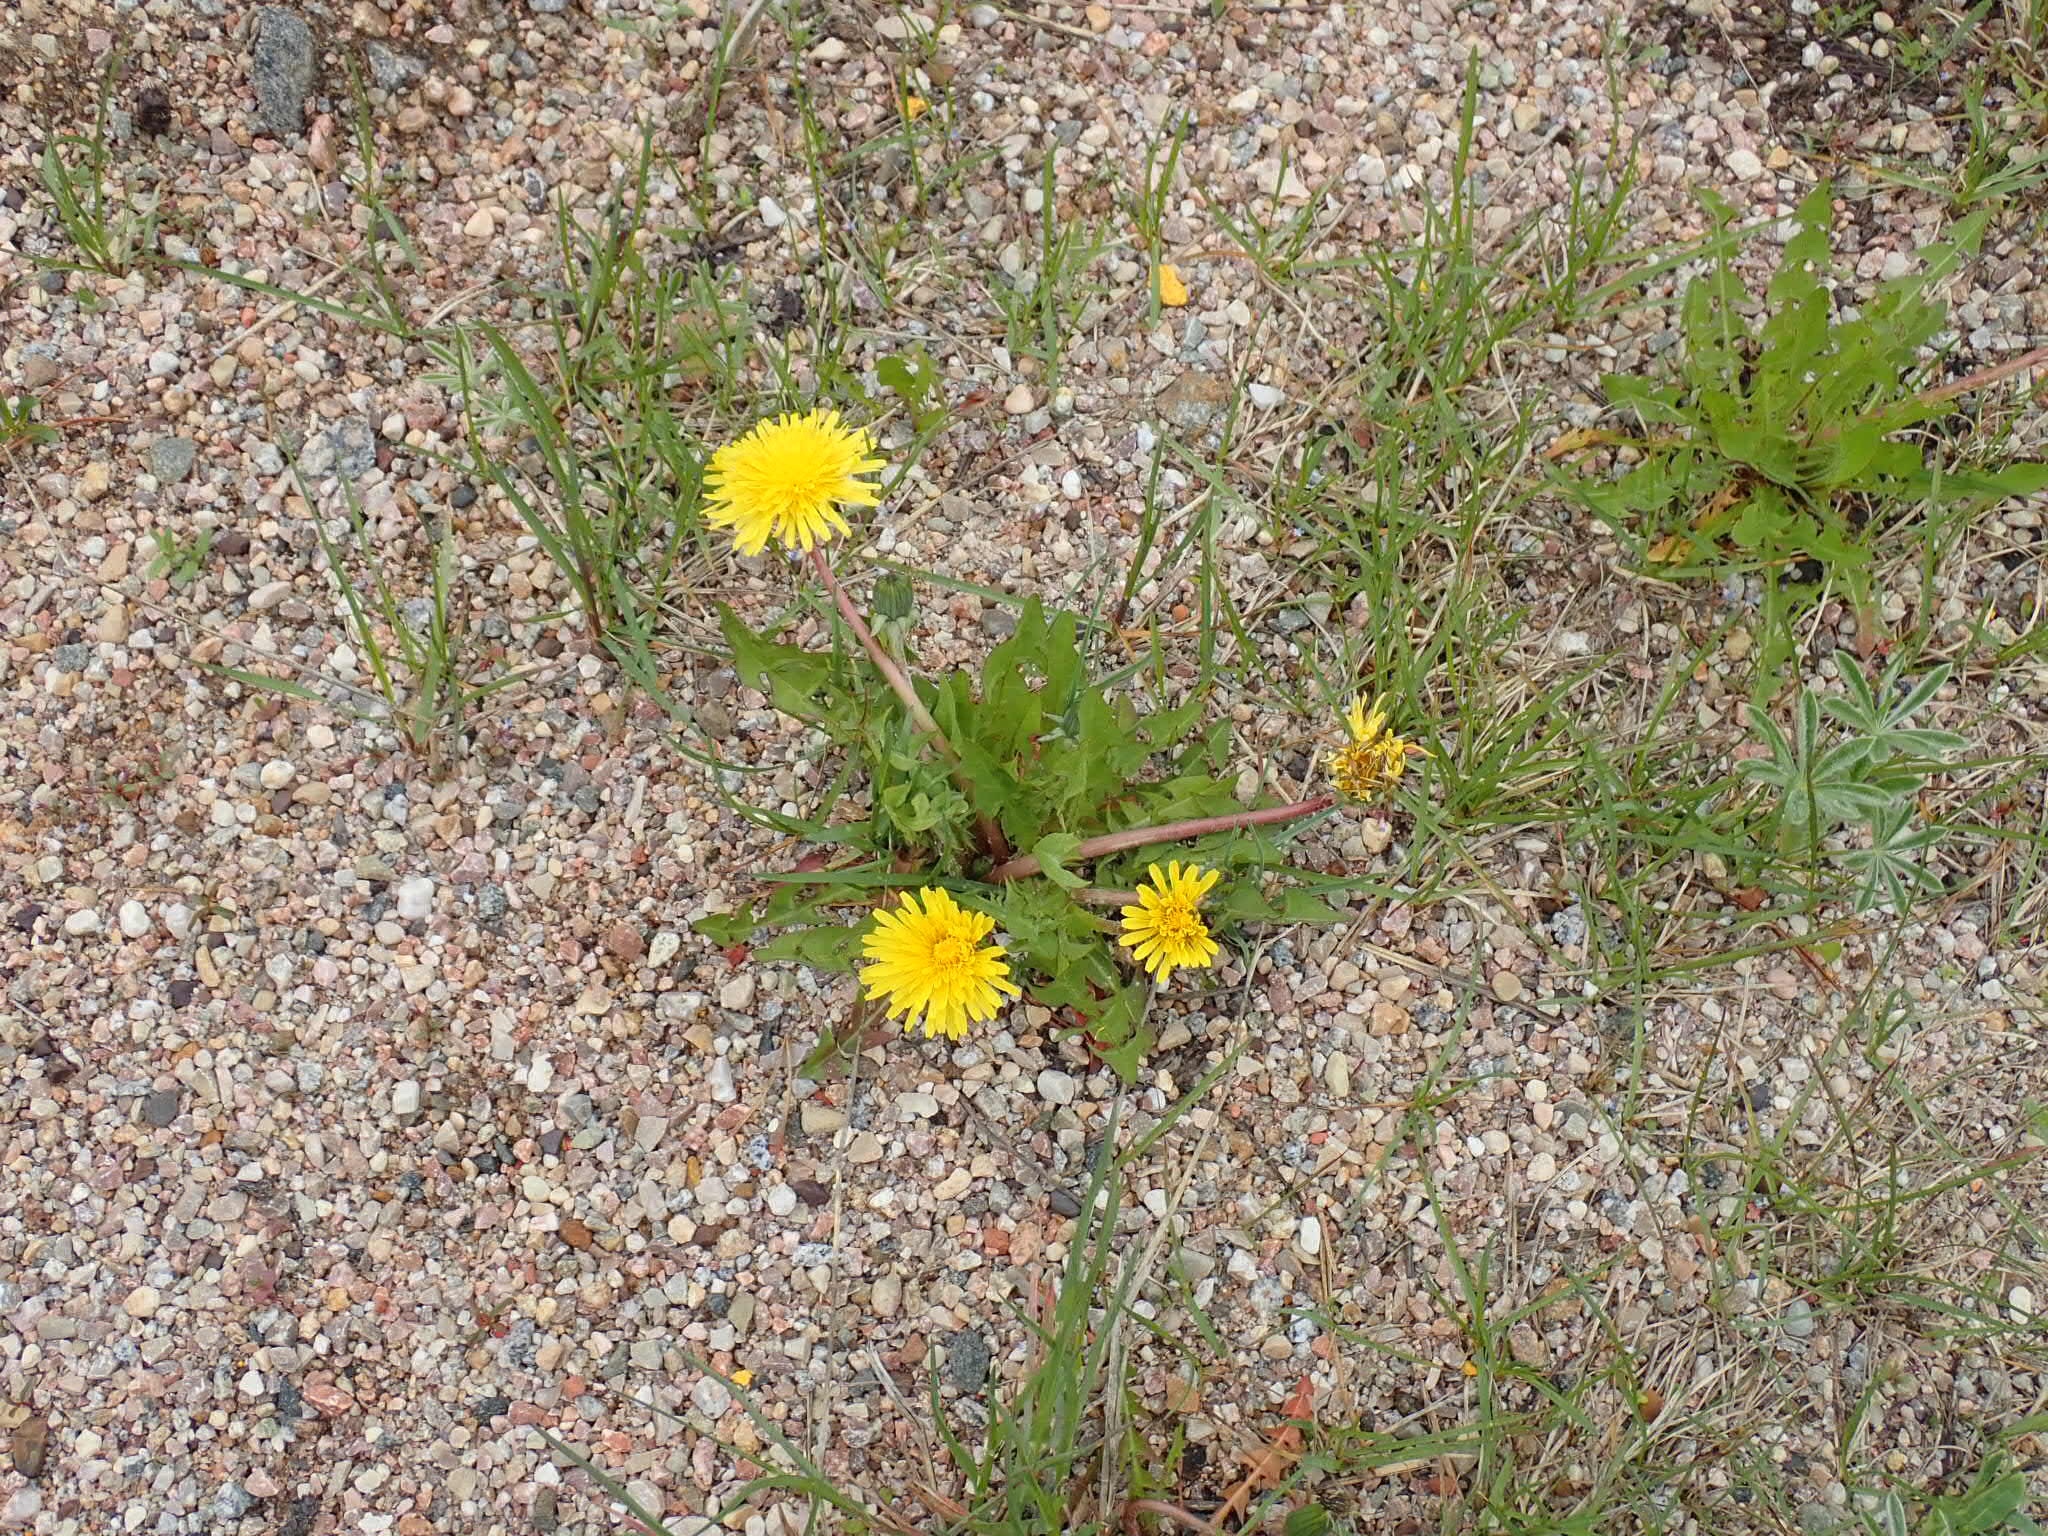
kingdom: Plantae
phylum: Tracheophyta
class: Magnoliopsida
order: Asterales
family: Asteraceae
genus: Taraxacum
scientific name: Taraxacum officinale
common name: Common dandelion
